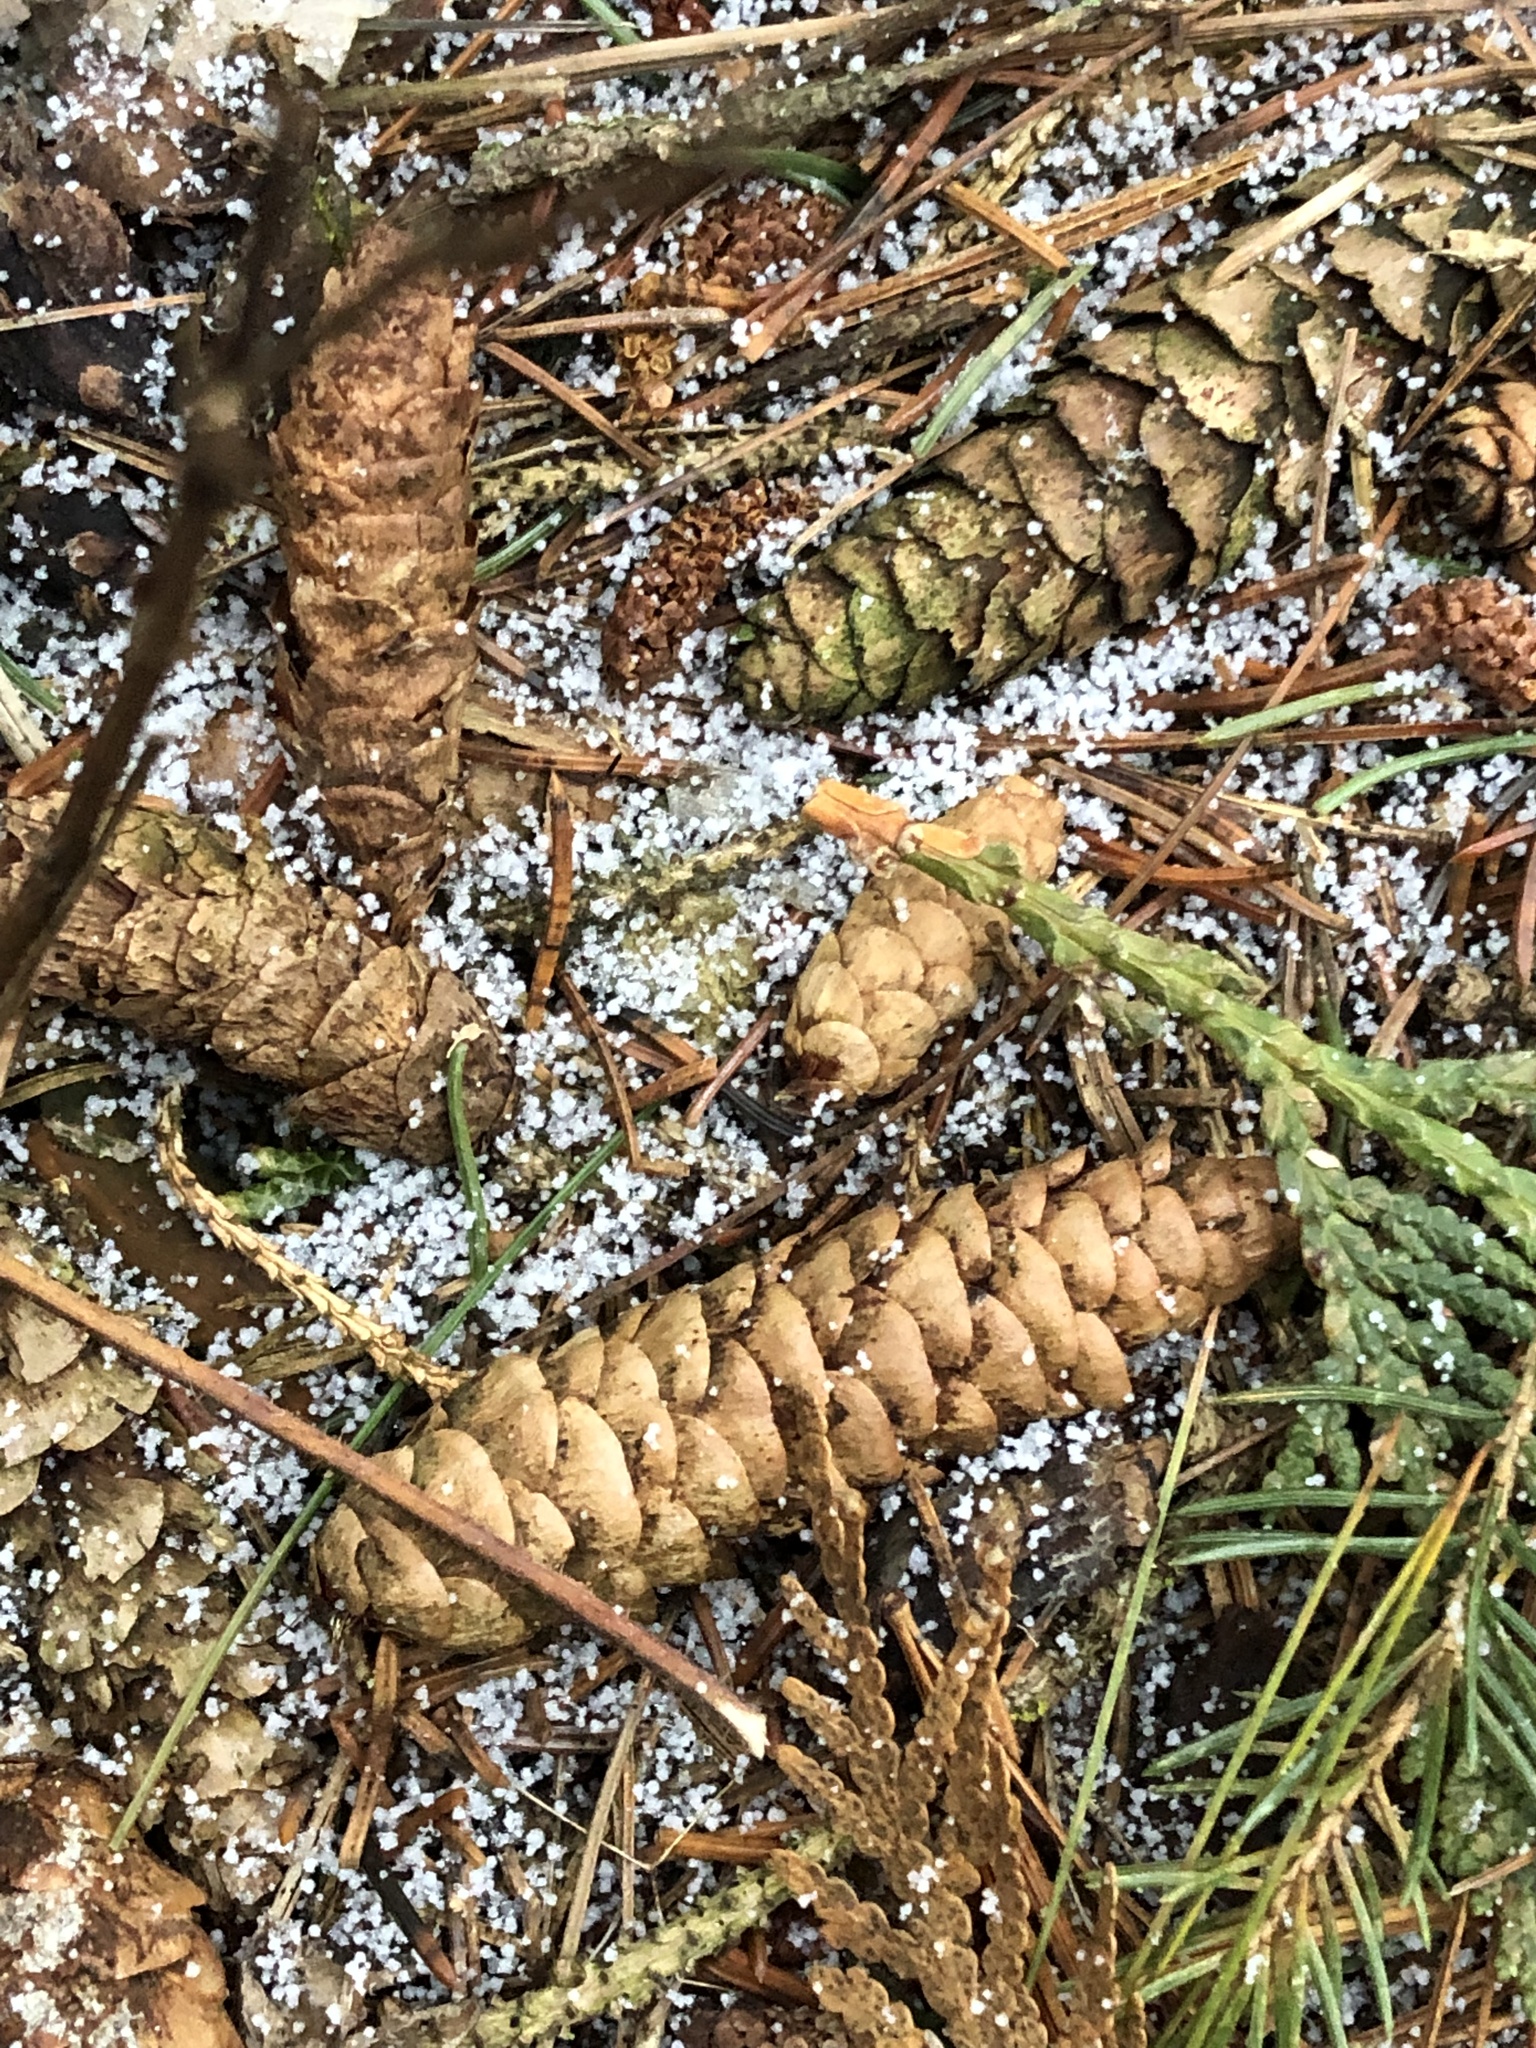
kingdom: Plantae
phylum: Tracheophyta
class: Pinopsida
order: Pinales
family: Pinaceae
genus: Picea
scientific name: Picea glauca
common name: White spruce
